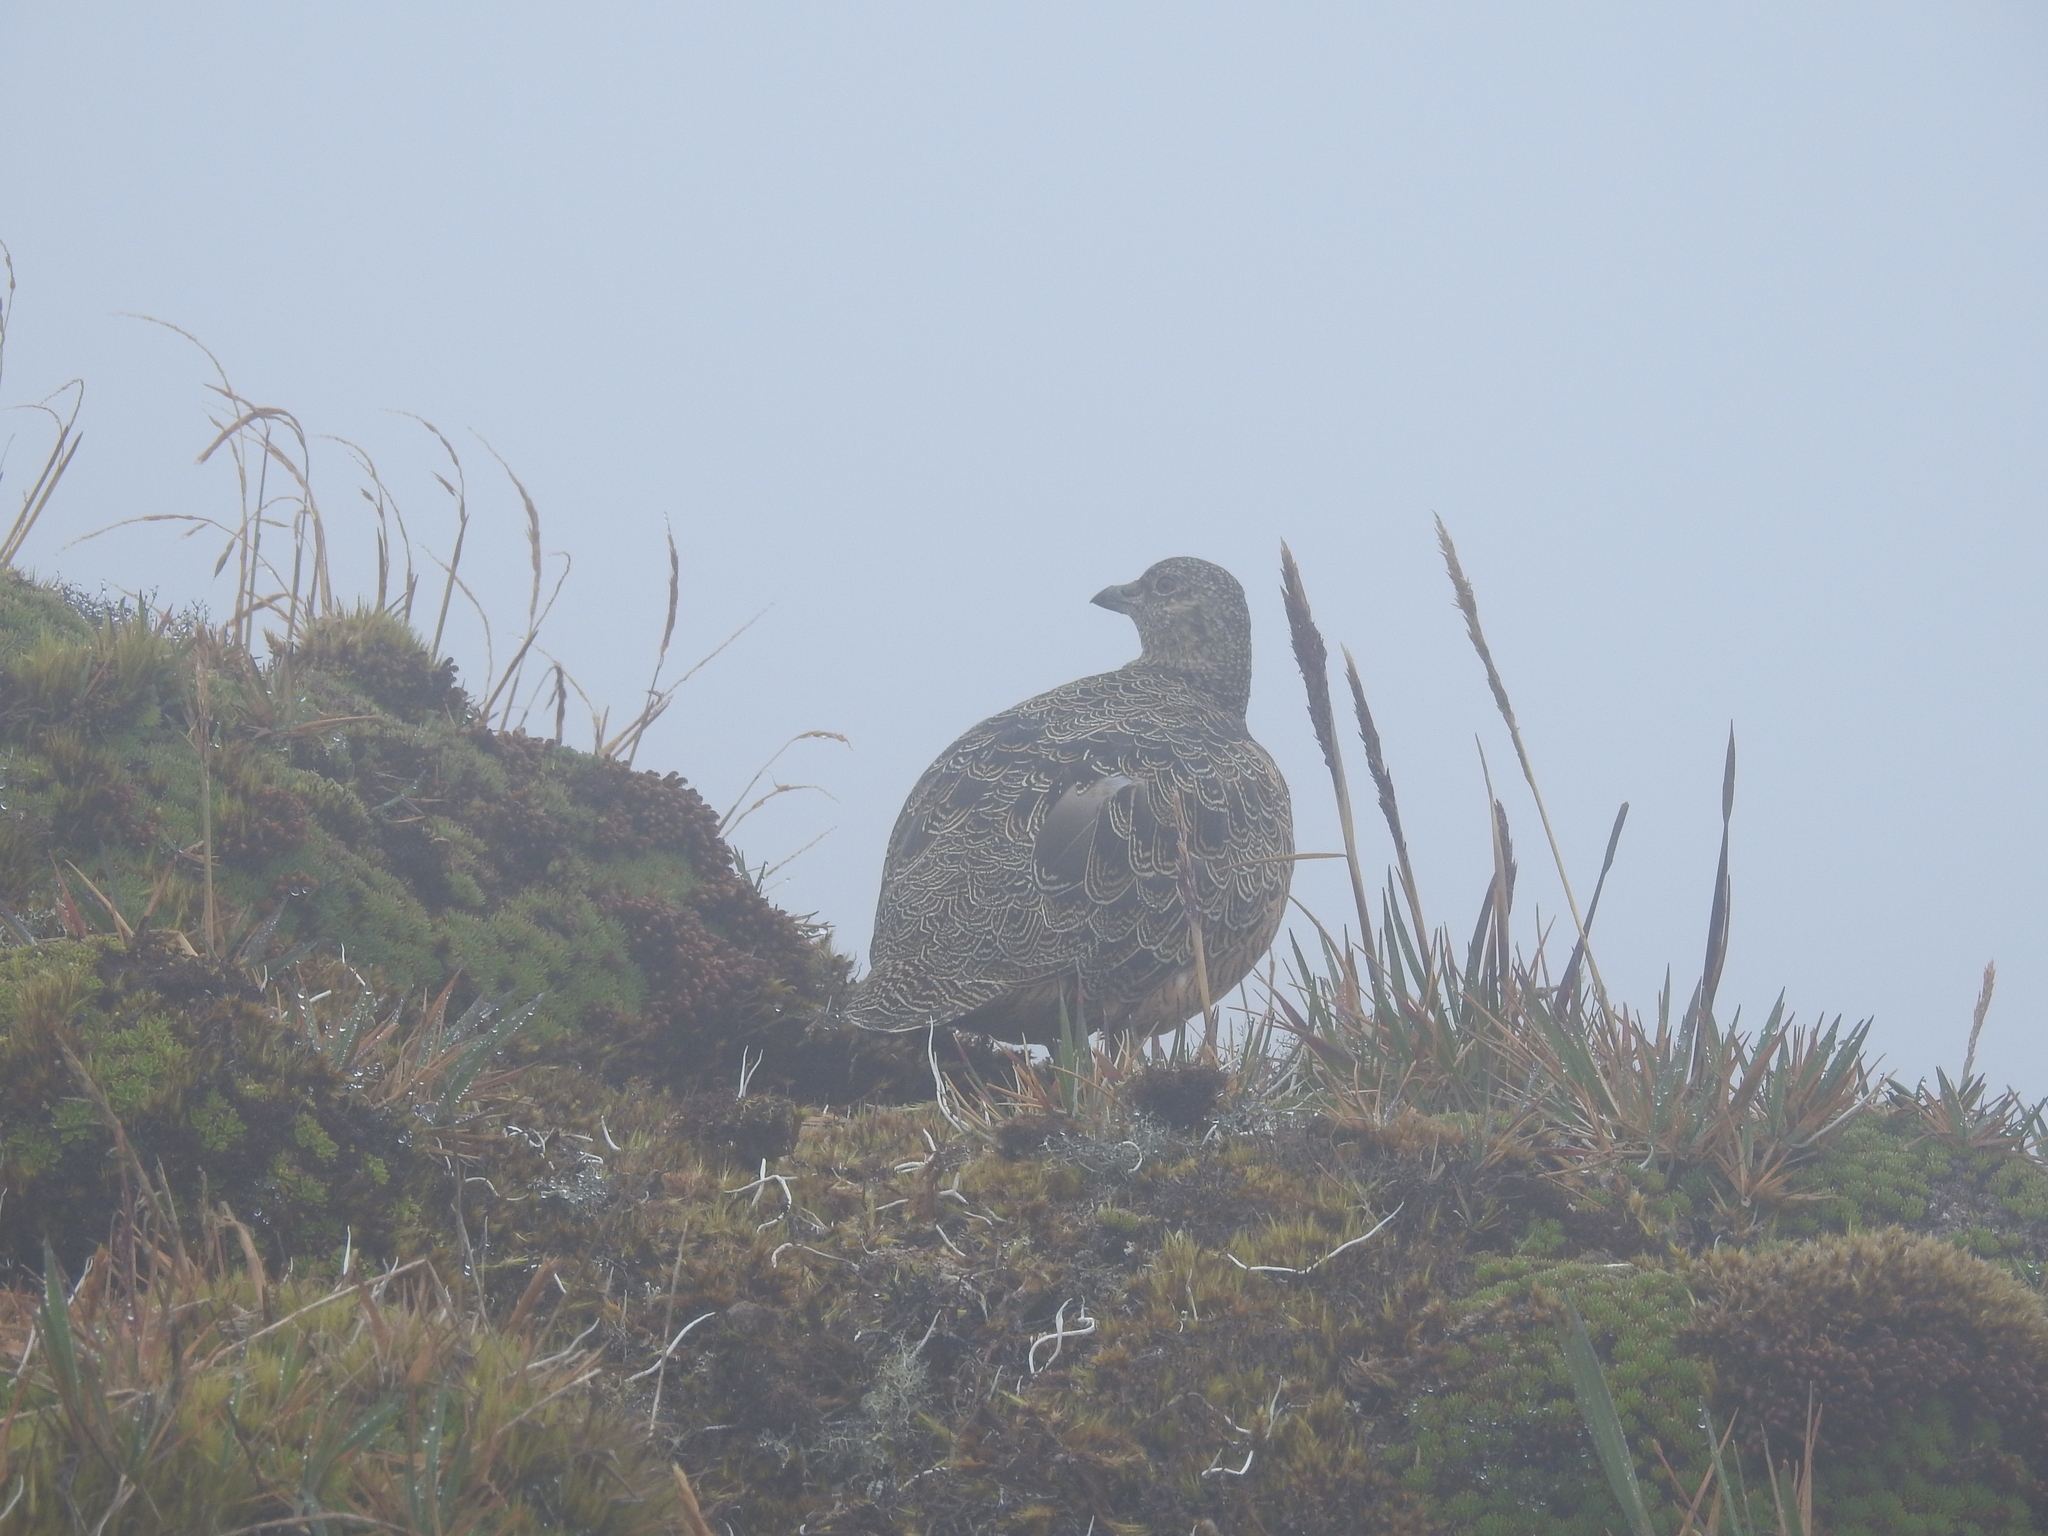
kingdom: Animalia
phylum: Chordata
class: Aves
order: Charadriiformes
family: Thinocoridae
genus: Attagis
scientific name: Attagis gayi
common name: Rufous-bellied seedsnipe
